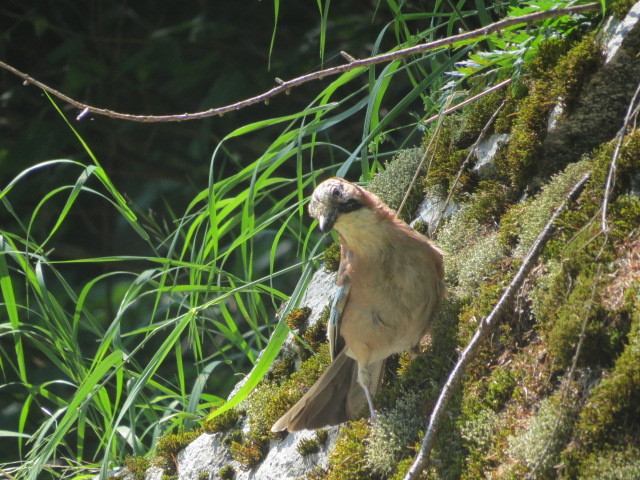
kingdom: Animalia
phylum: Chordata
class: Aves
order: Passeriformes
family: Corvidae
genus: Garrulus
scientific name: Garrulus glandarius
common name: Eurasian jay
